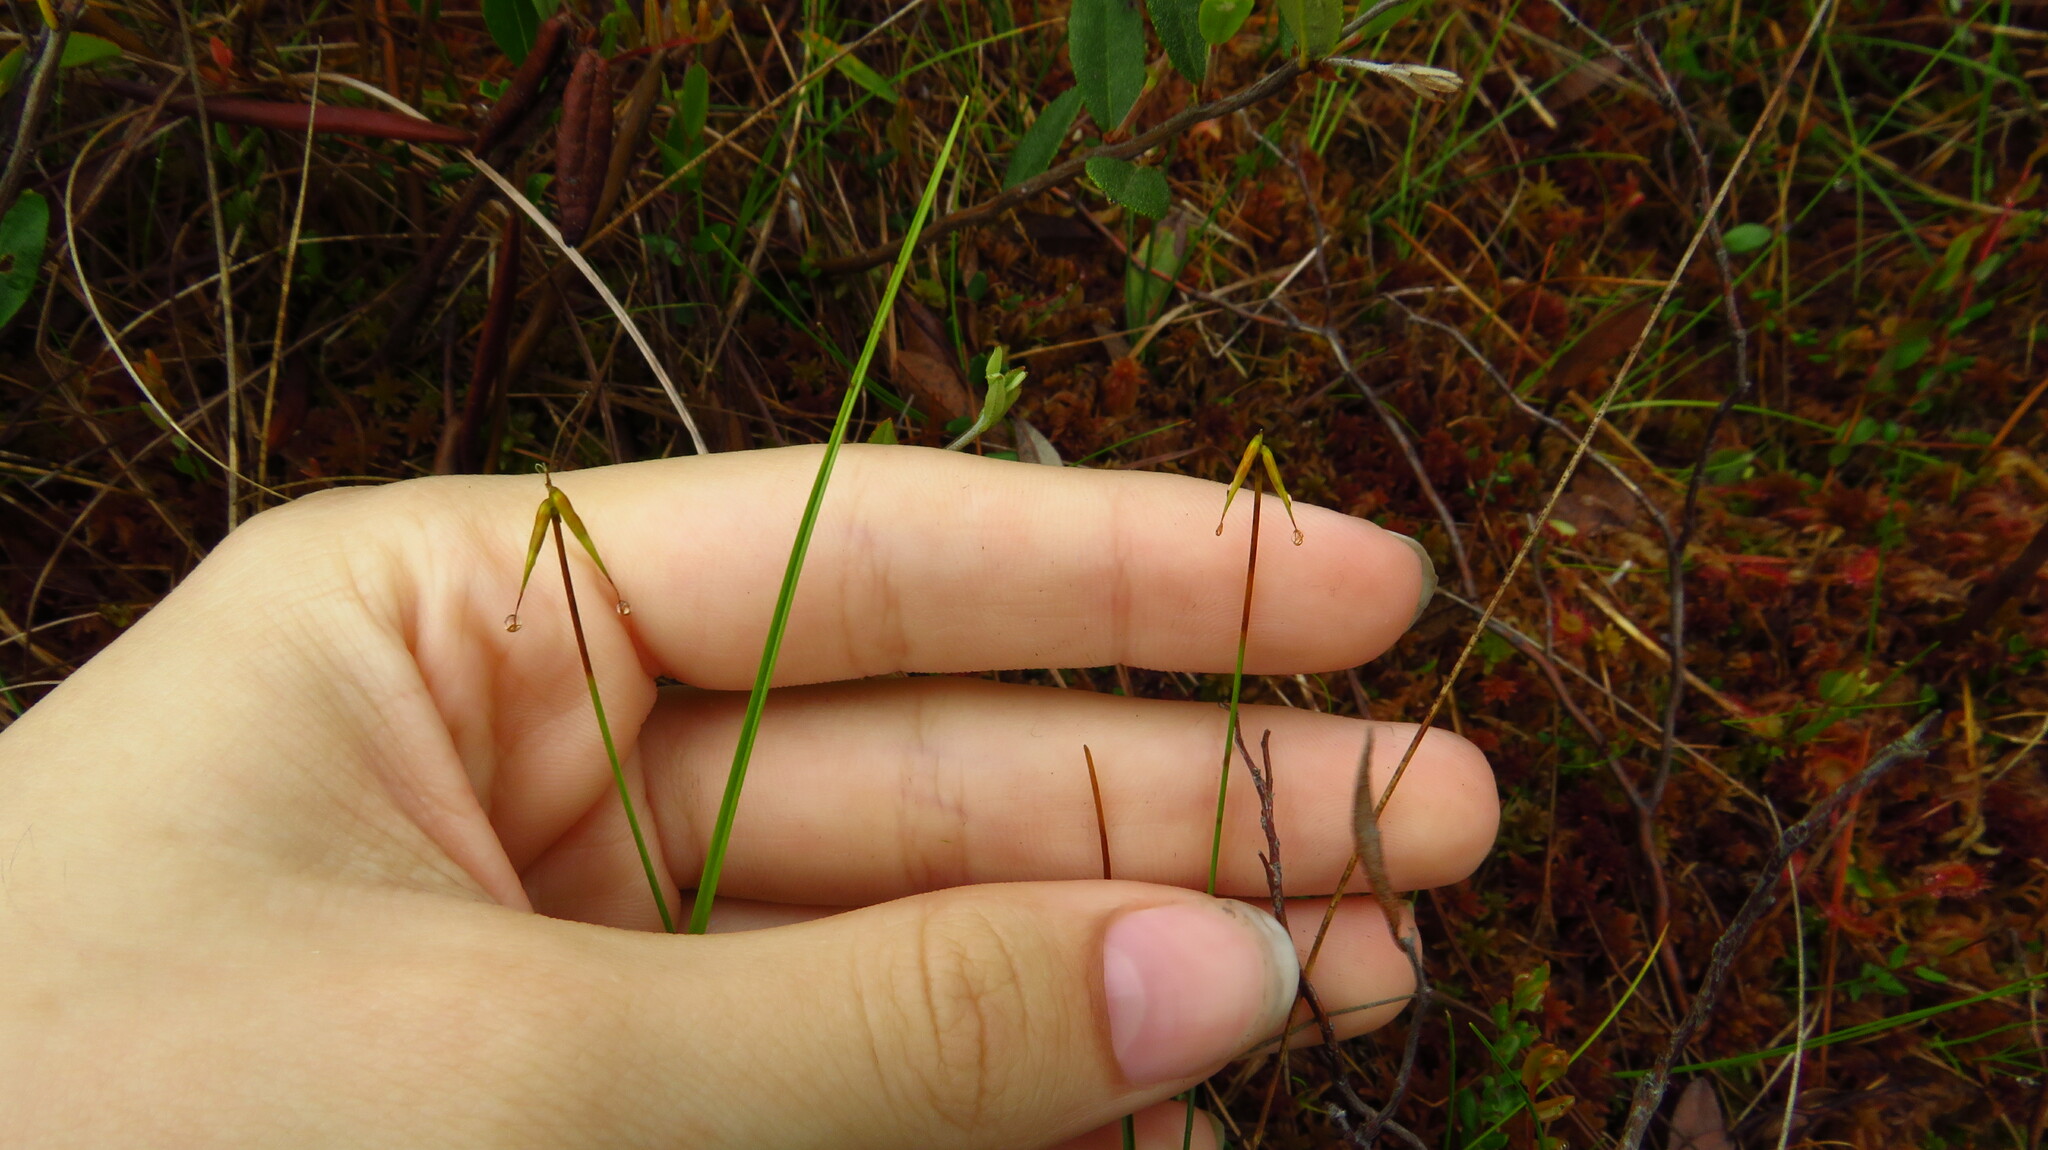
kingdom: Plantae
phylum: Tracheophyta
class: Liliopsida
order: Poales
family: Cyperaceae
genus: Carex
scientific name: Carex pauciflora
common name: Few-flowered sedge
